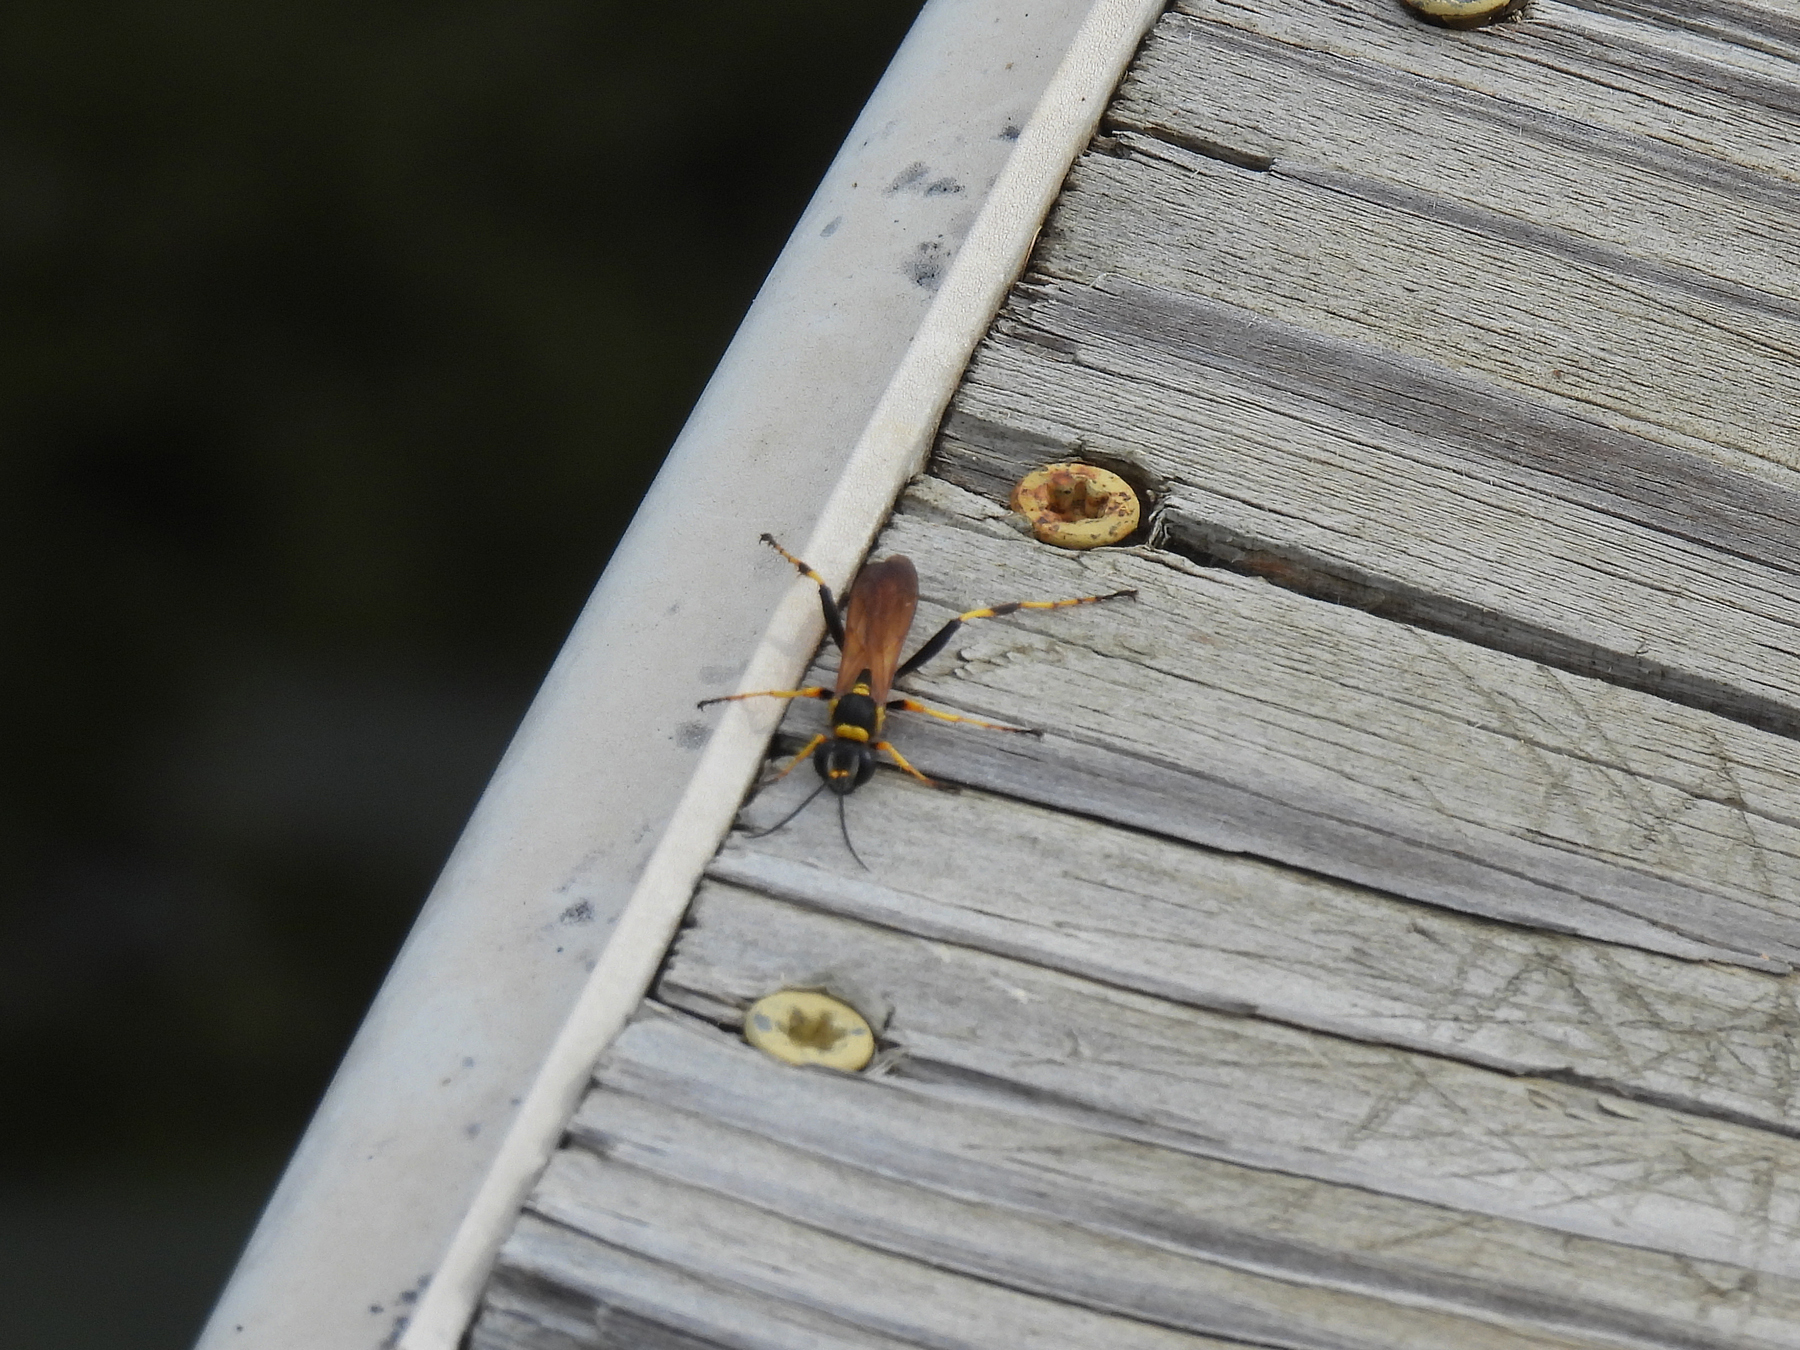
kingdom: Animalia
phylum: Arthropoda
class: Insecta
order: Hymenoptera
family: Sphecidae
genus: Sceliphron
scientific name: Sceliphron caementarium
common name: Mud dauber
